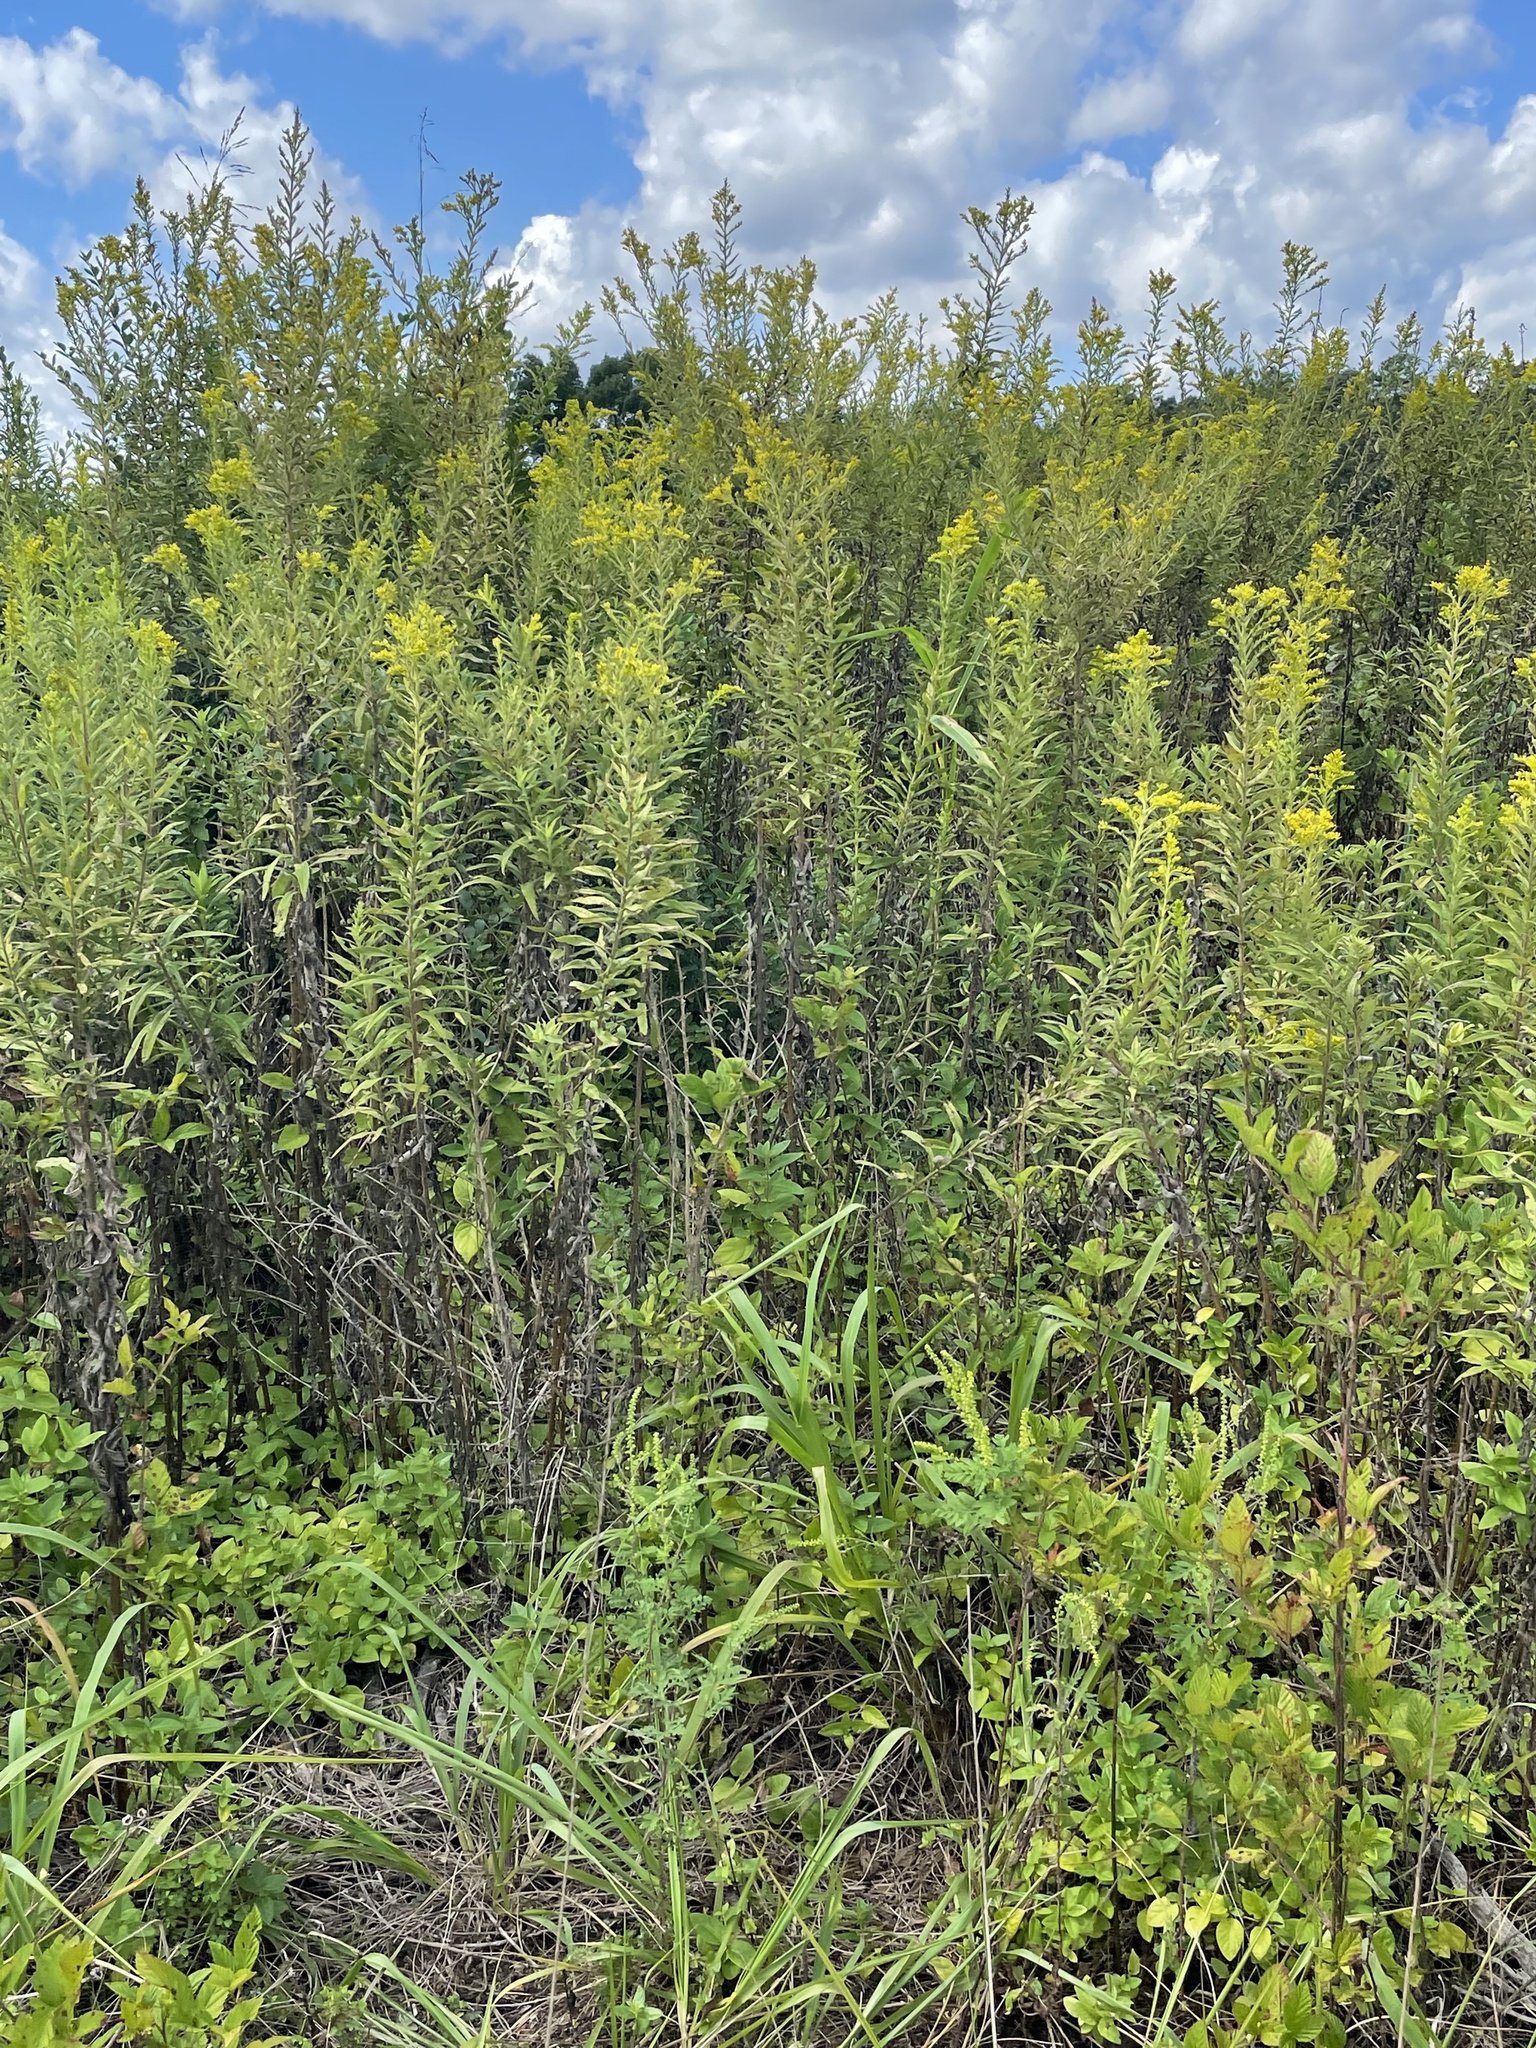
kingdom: Plantae
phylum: Tracheophyta
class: Magnoliopsida
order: Asterales
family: Asteraceae
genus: Solidago
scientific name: Solidago altissima
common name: Late goldenrod
